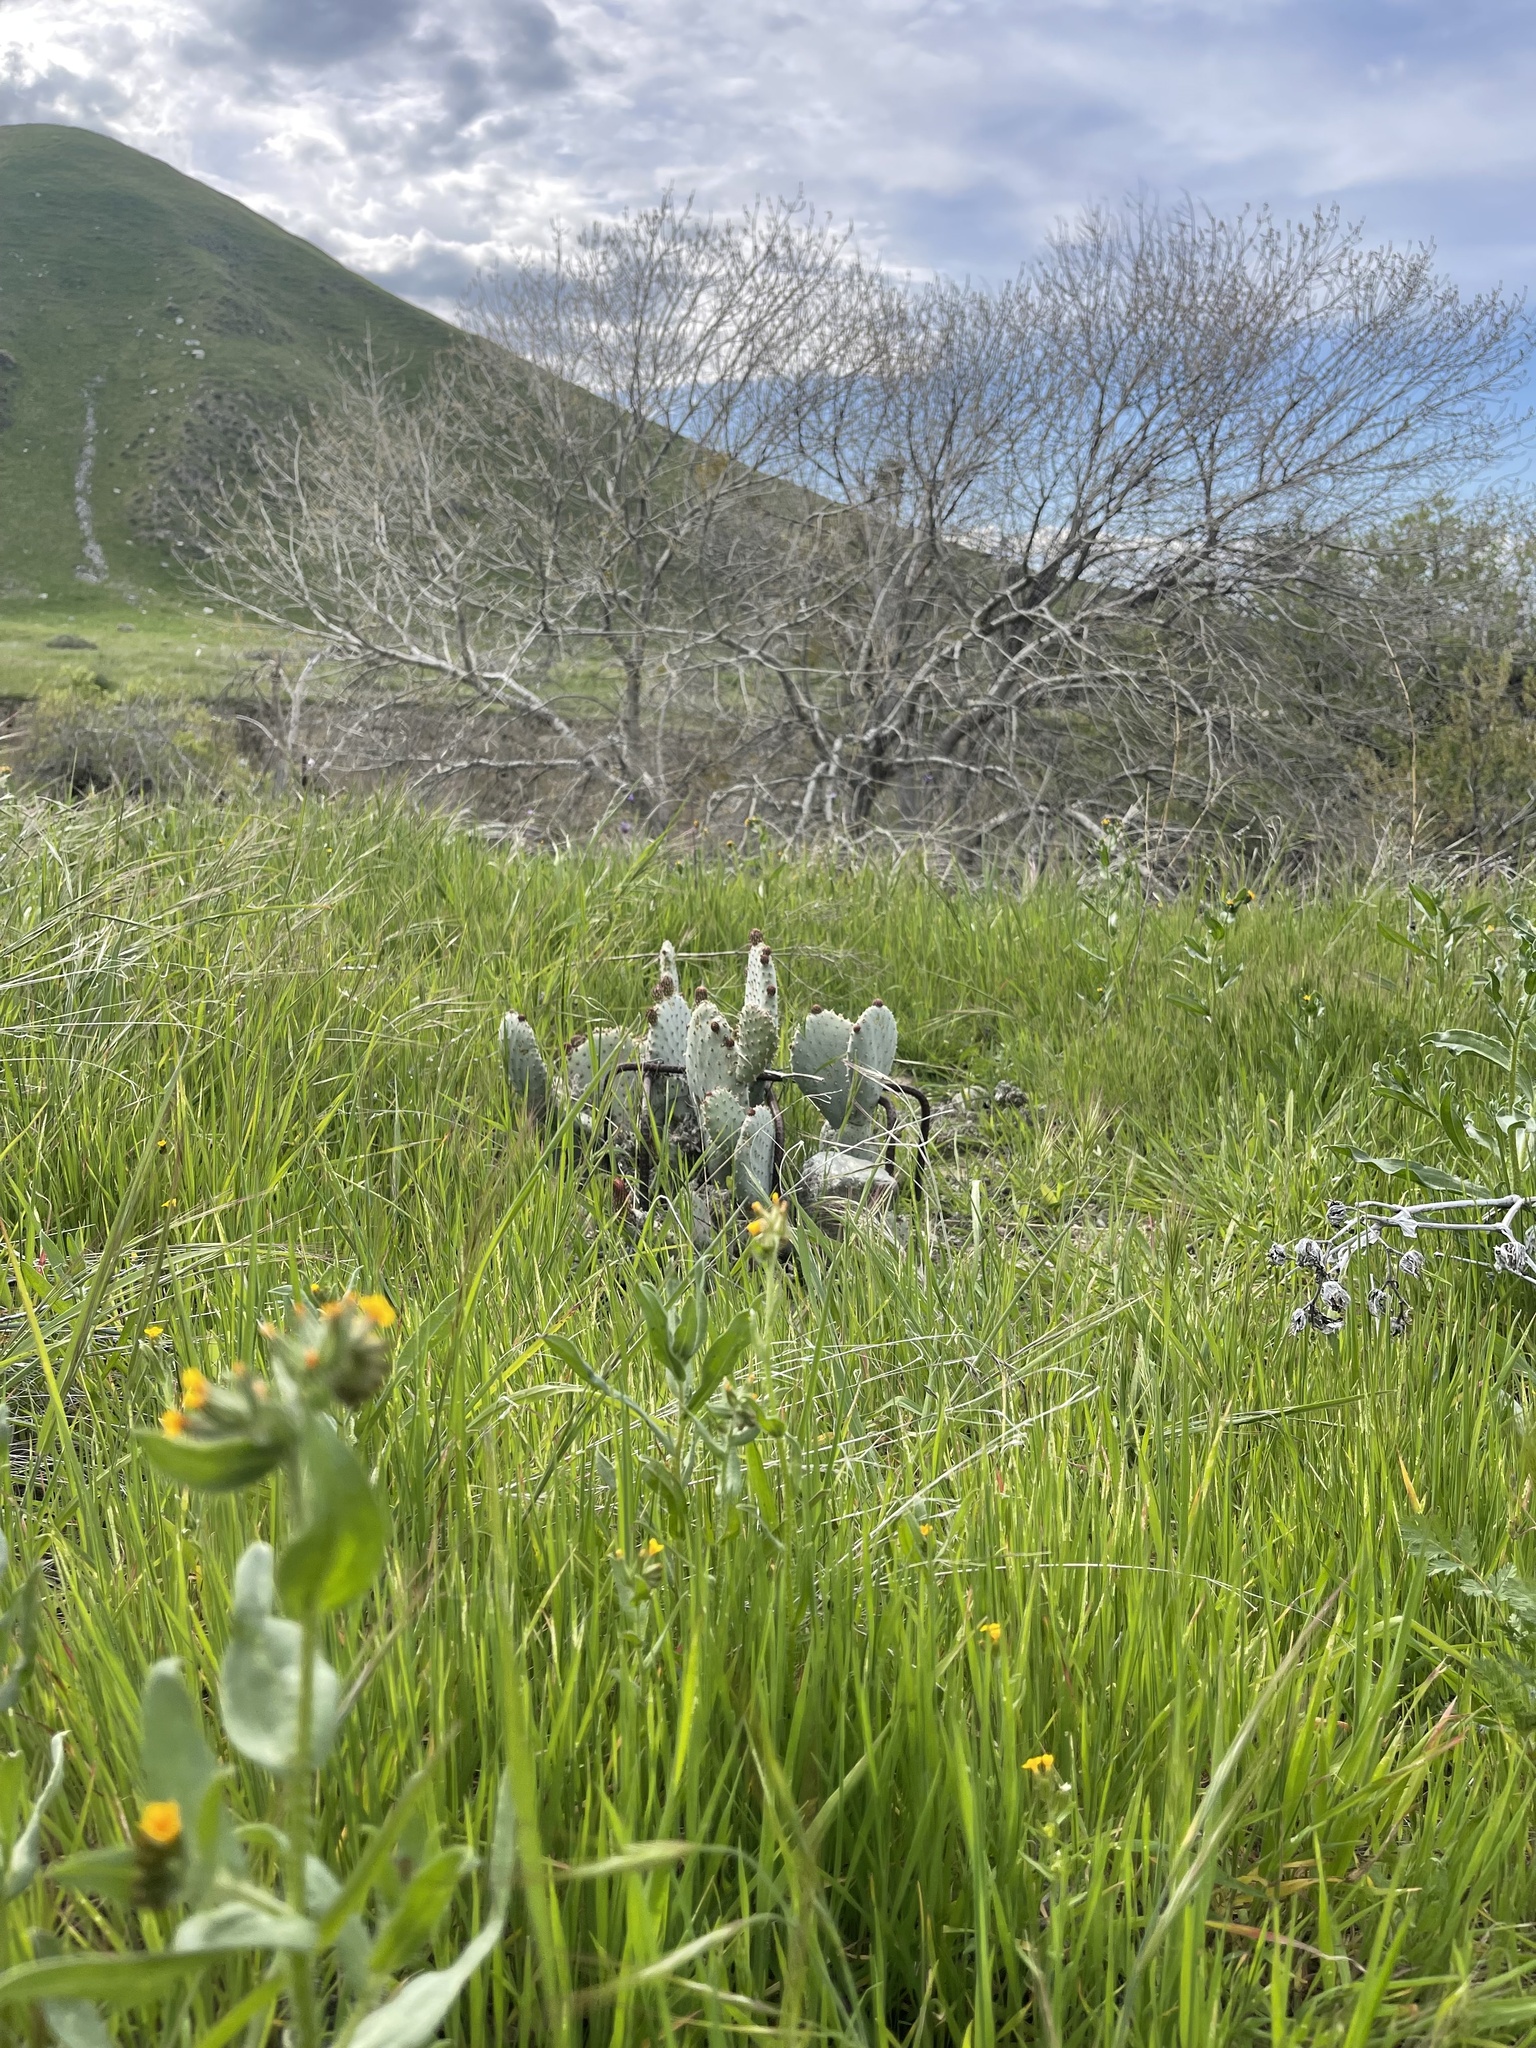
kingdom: Plantae
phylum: Tracheophyta
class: Magnoliopsida
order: Caryophyllales
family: Cactaceae
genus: Opuntia
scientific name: Opuntia basilaris
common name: Beavertail prickly-pear
